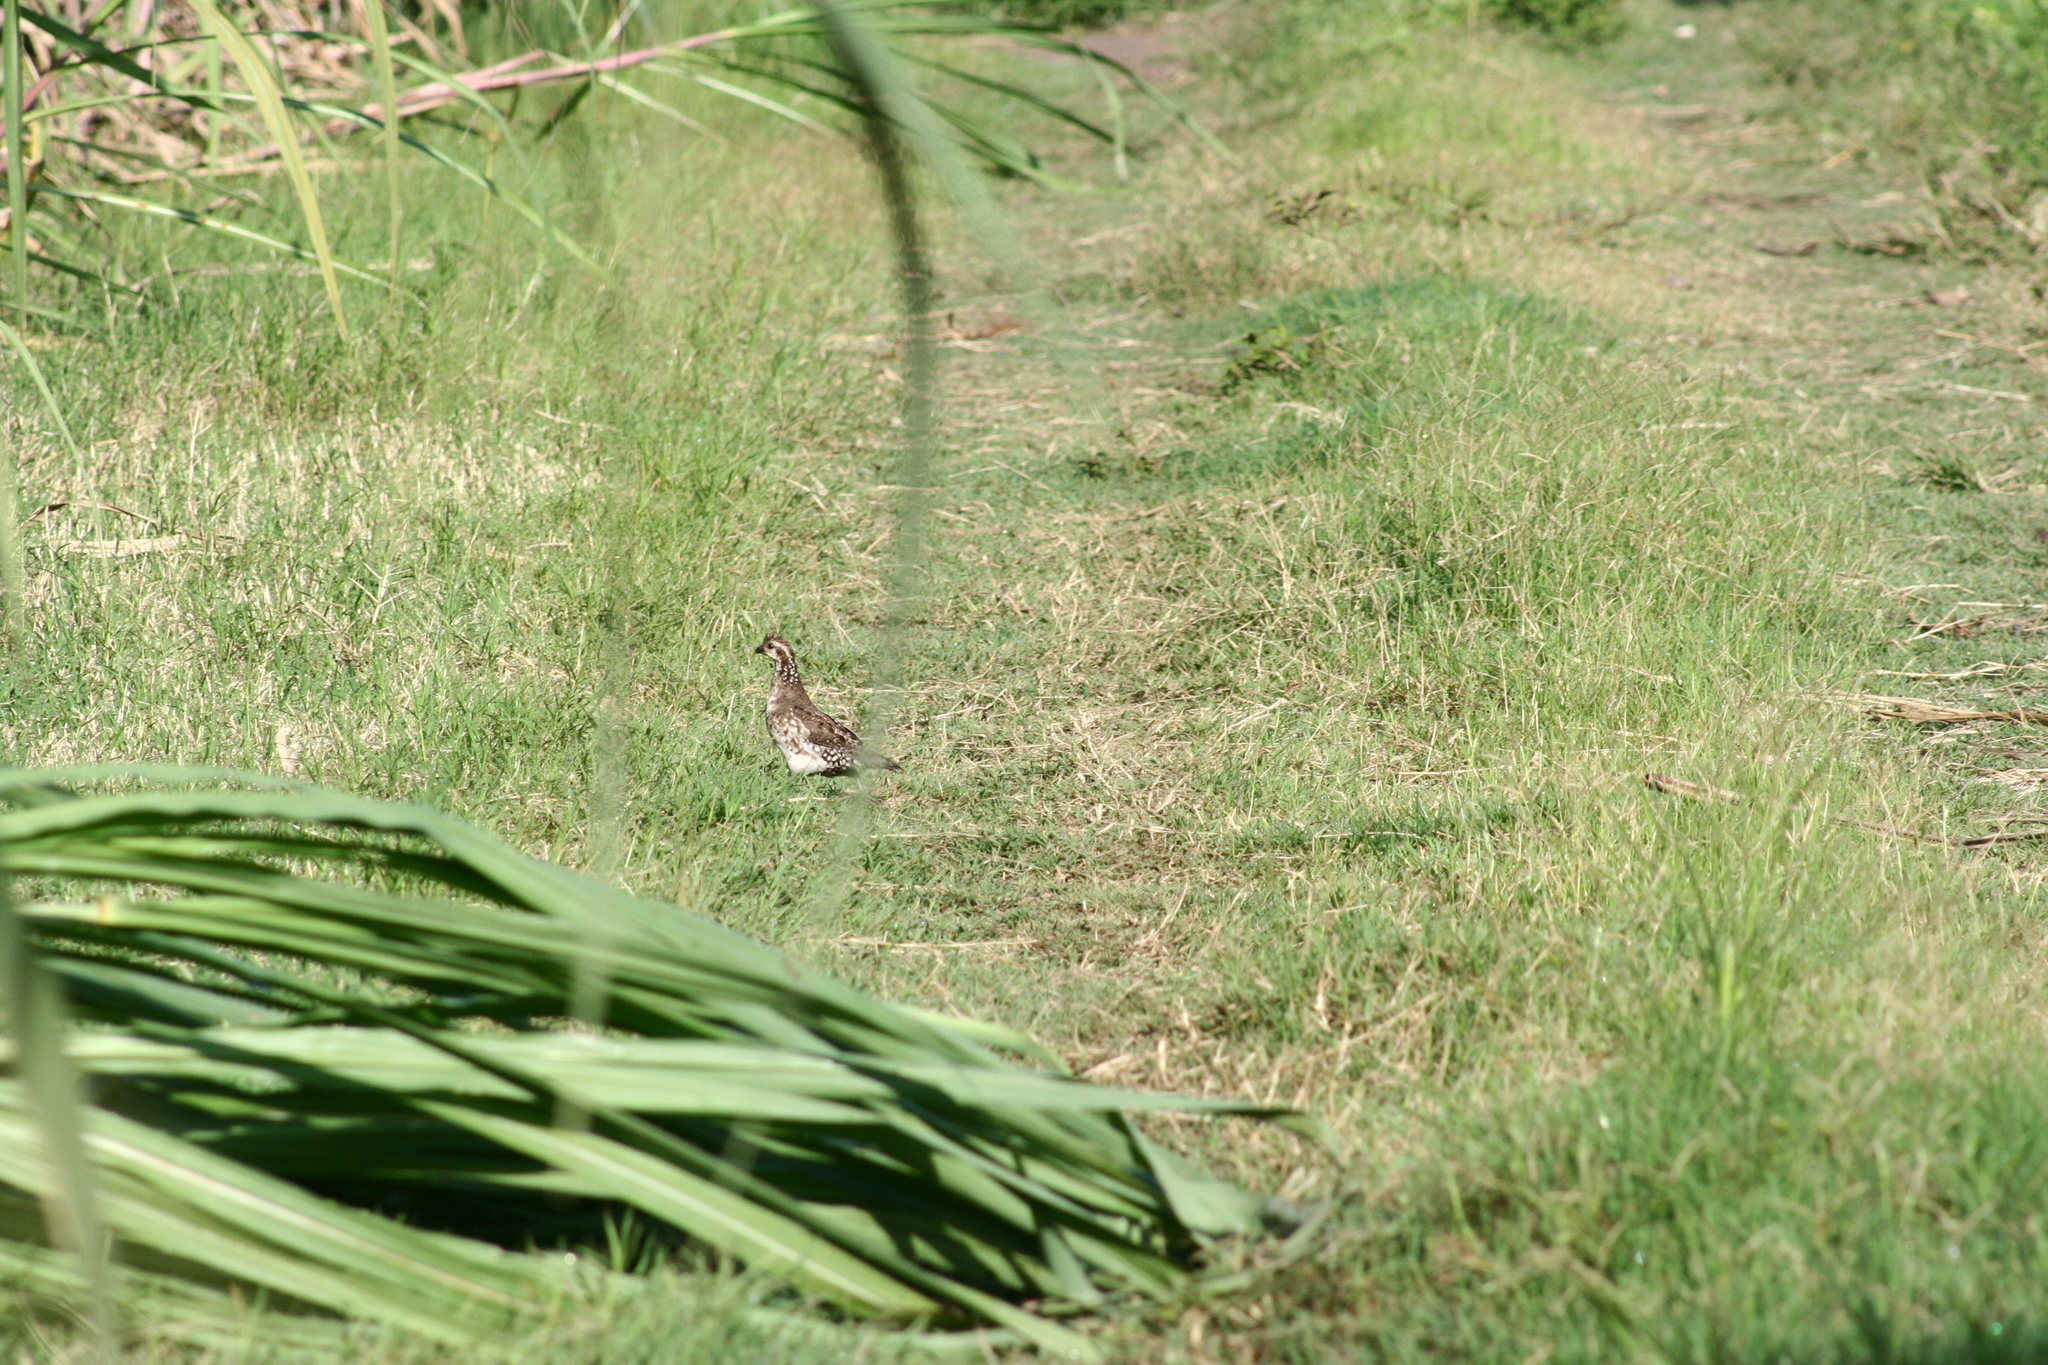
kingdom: Animalia
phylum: Chordata
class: Aves
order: Galliformes
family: Odontophoridae
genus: Colinus
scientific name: Colinus cristatus
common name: Crested bobwhite
